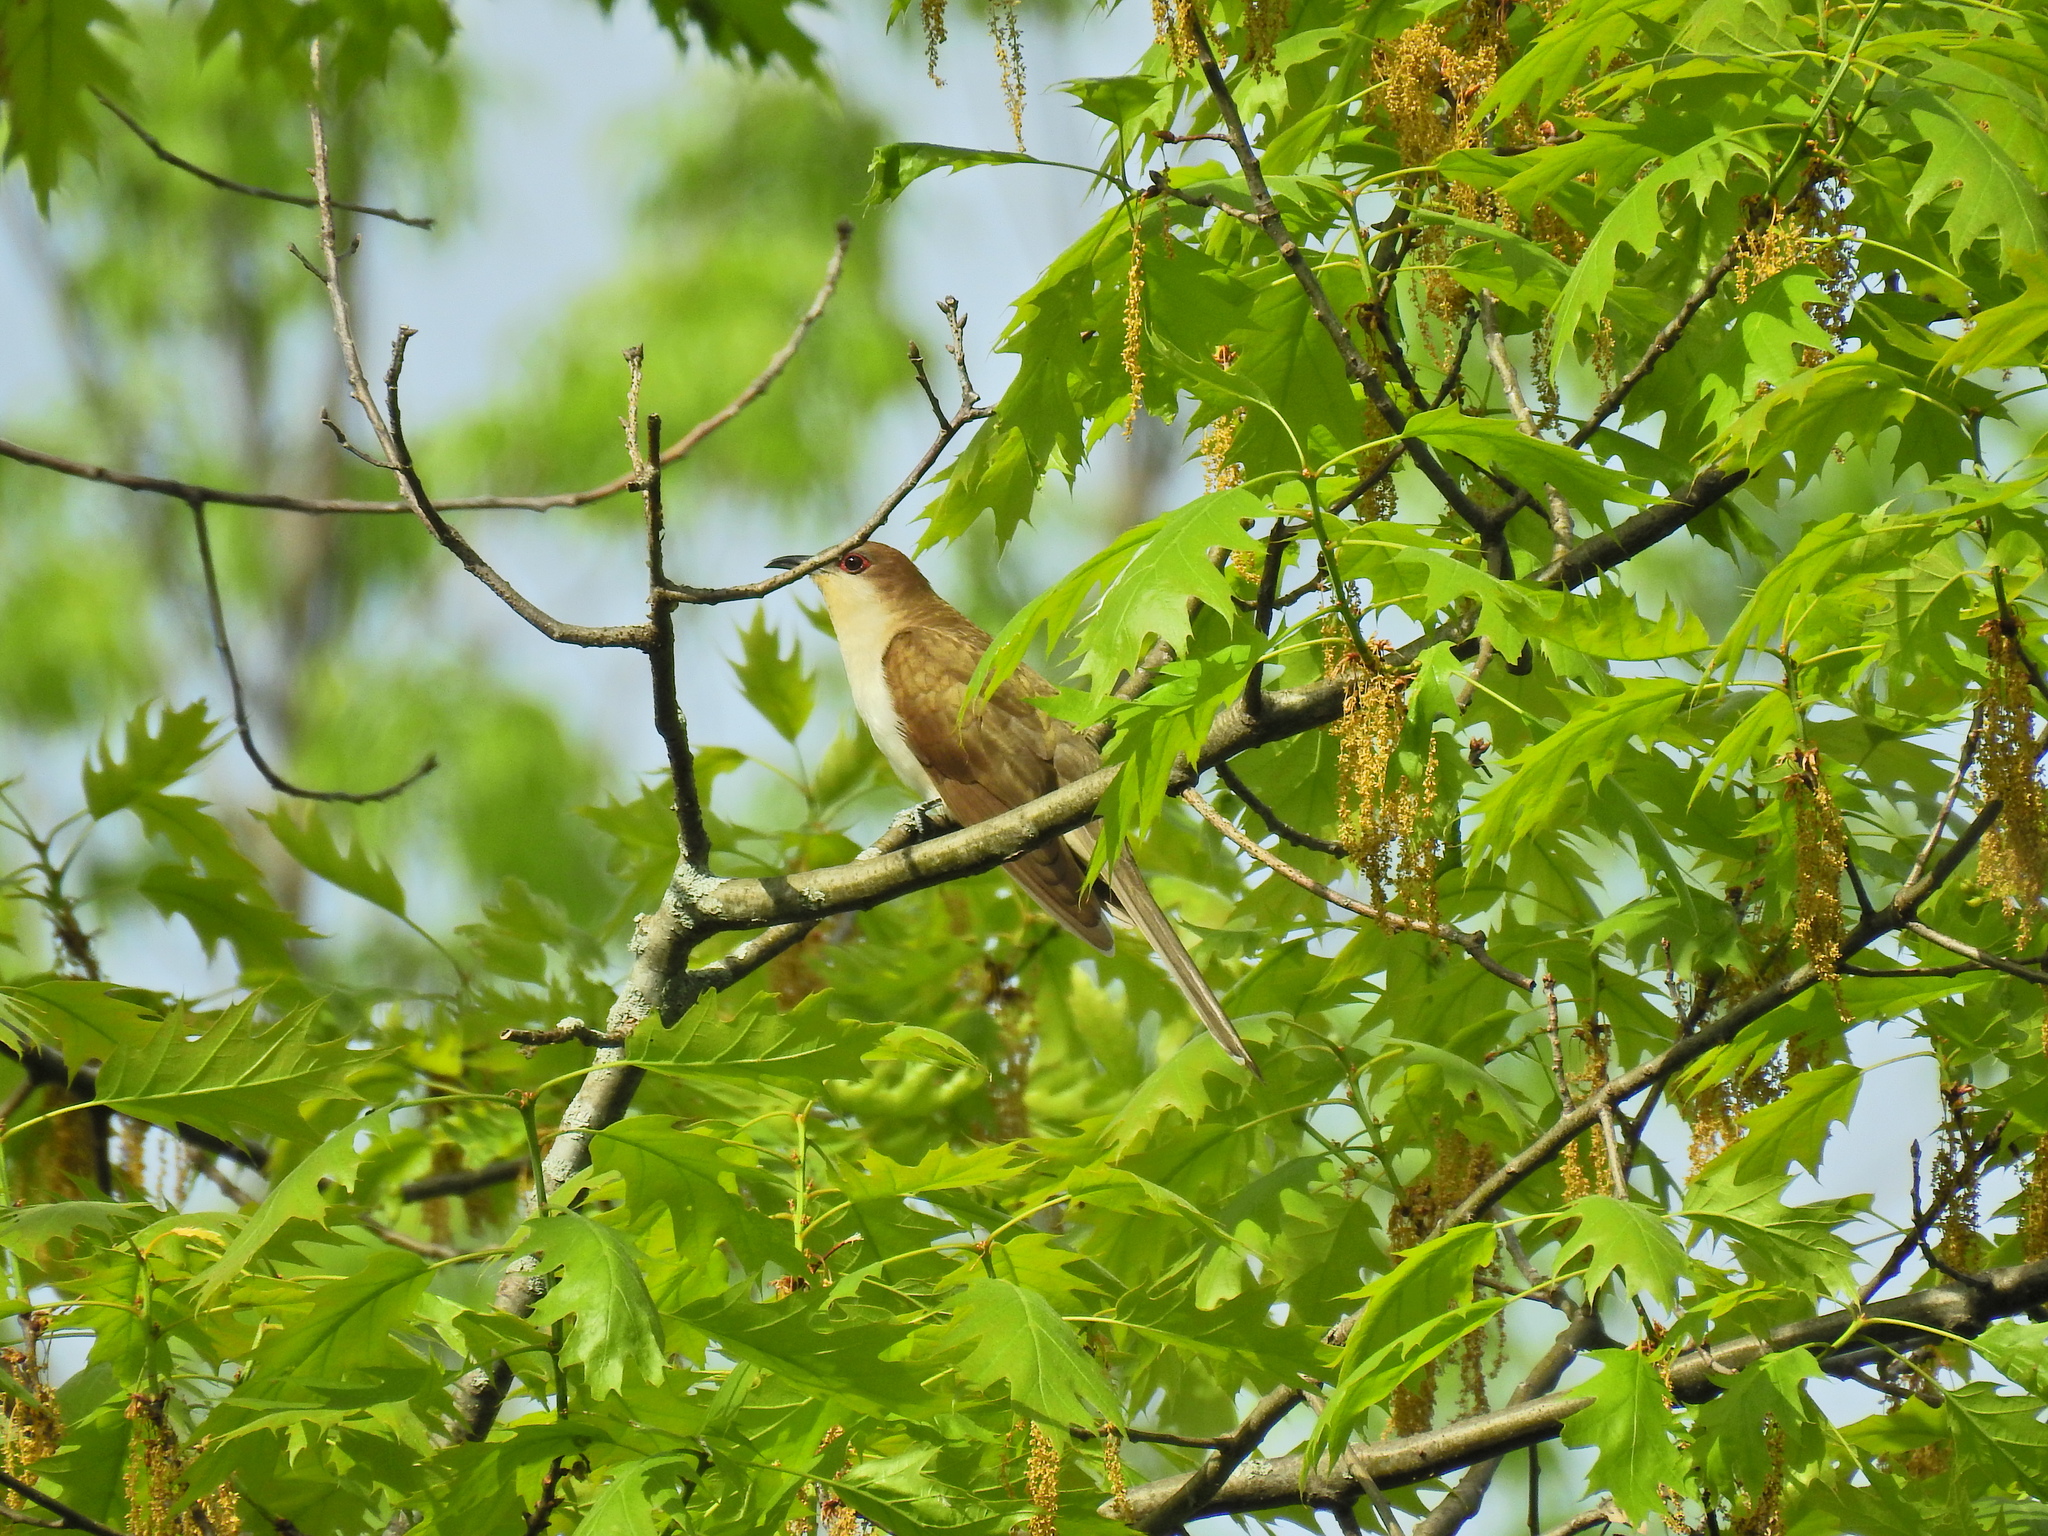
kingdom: Animalia
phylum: Chordata
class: Aves
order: Cuculiformes
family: Cuculidae
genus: Coccyzus
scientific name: Coccyzus erythropthalmus
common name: Black-billed cuckoo
